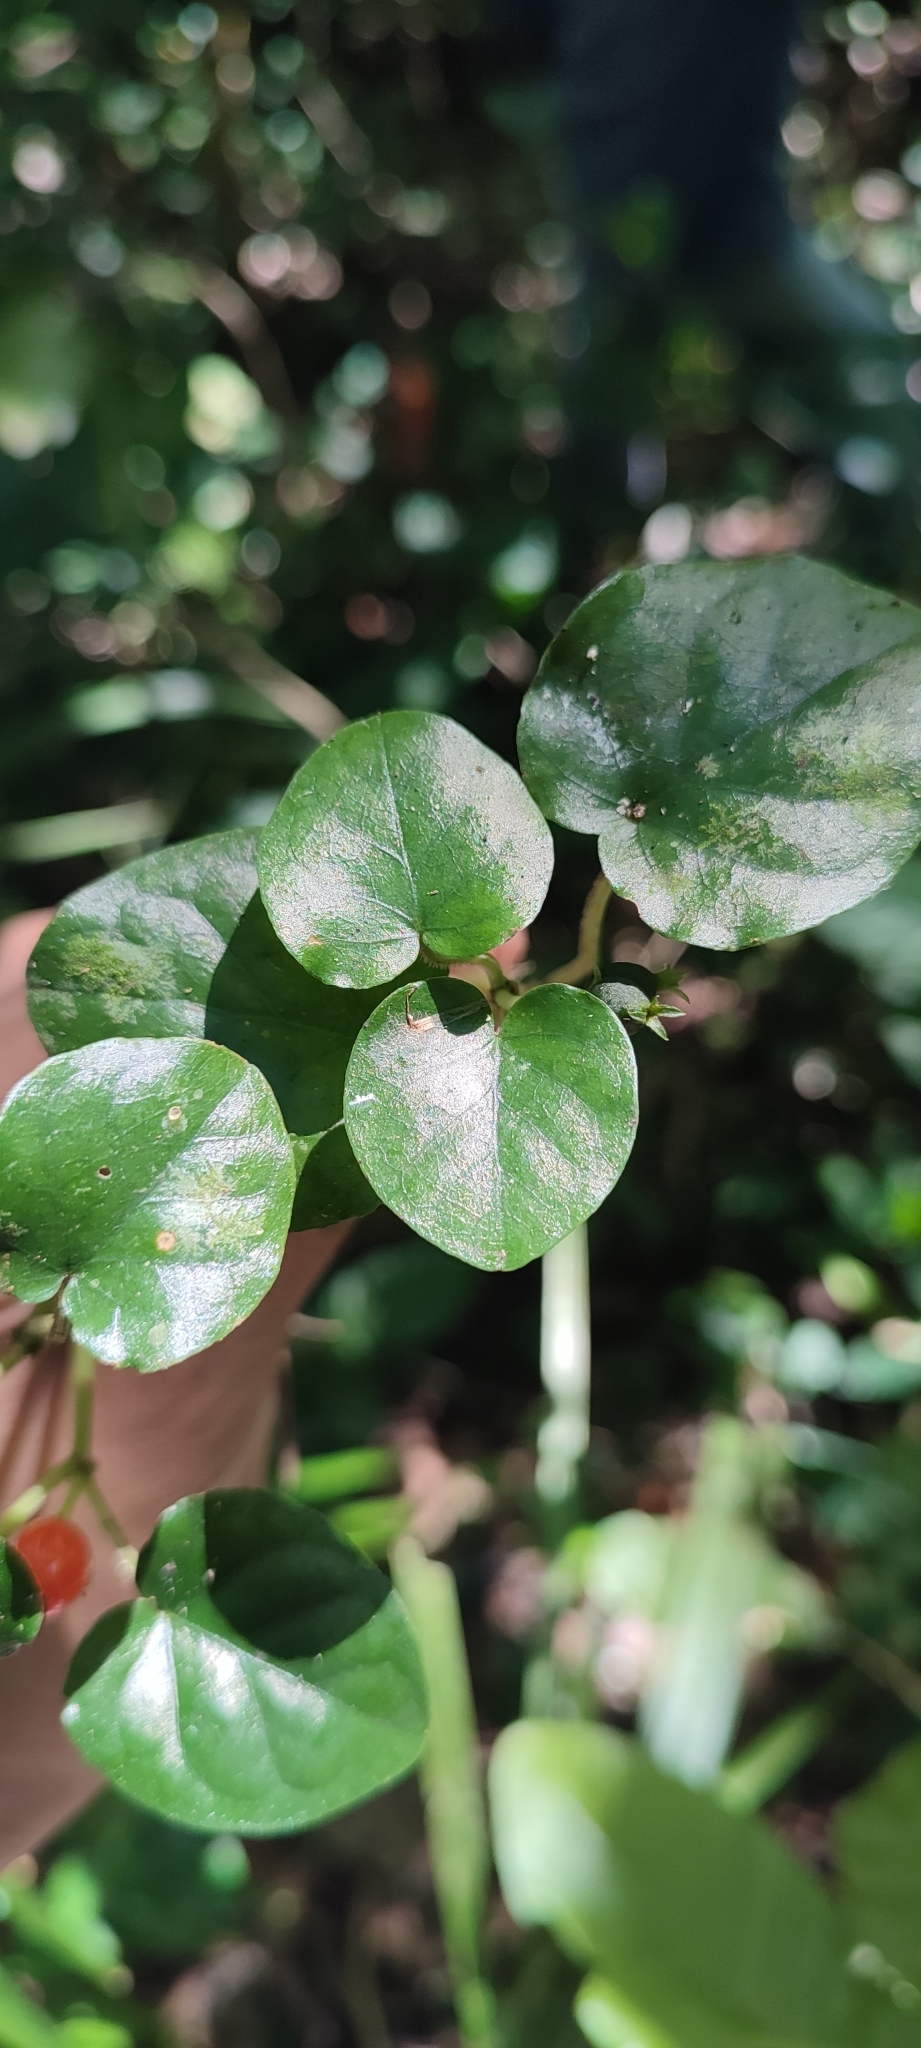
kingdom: Plantae
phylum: Tracheophyta
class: Magnoliopsida
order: Gentianales
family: Rubiaceae
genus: Geophila
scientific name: Geophila repens
